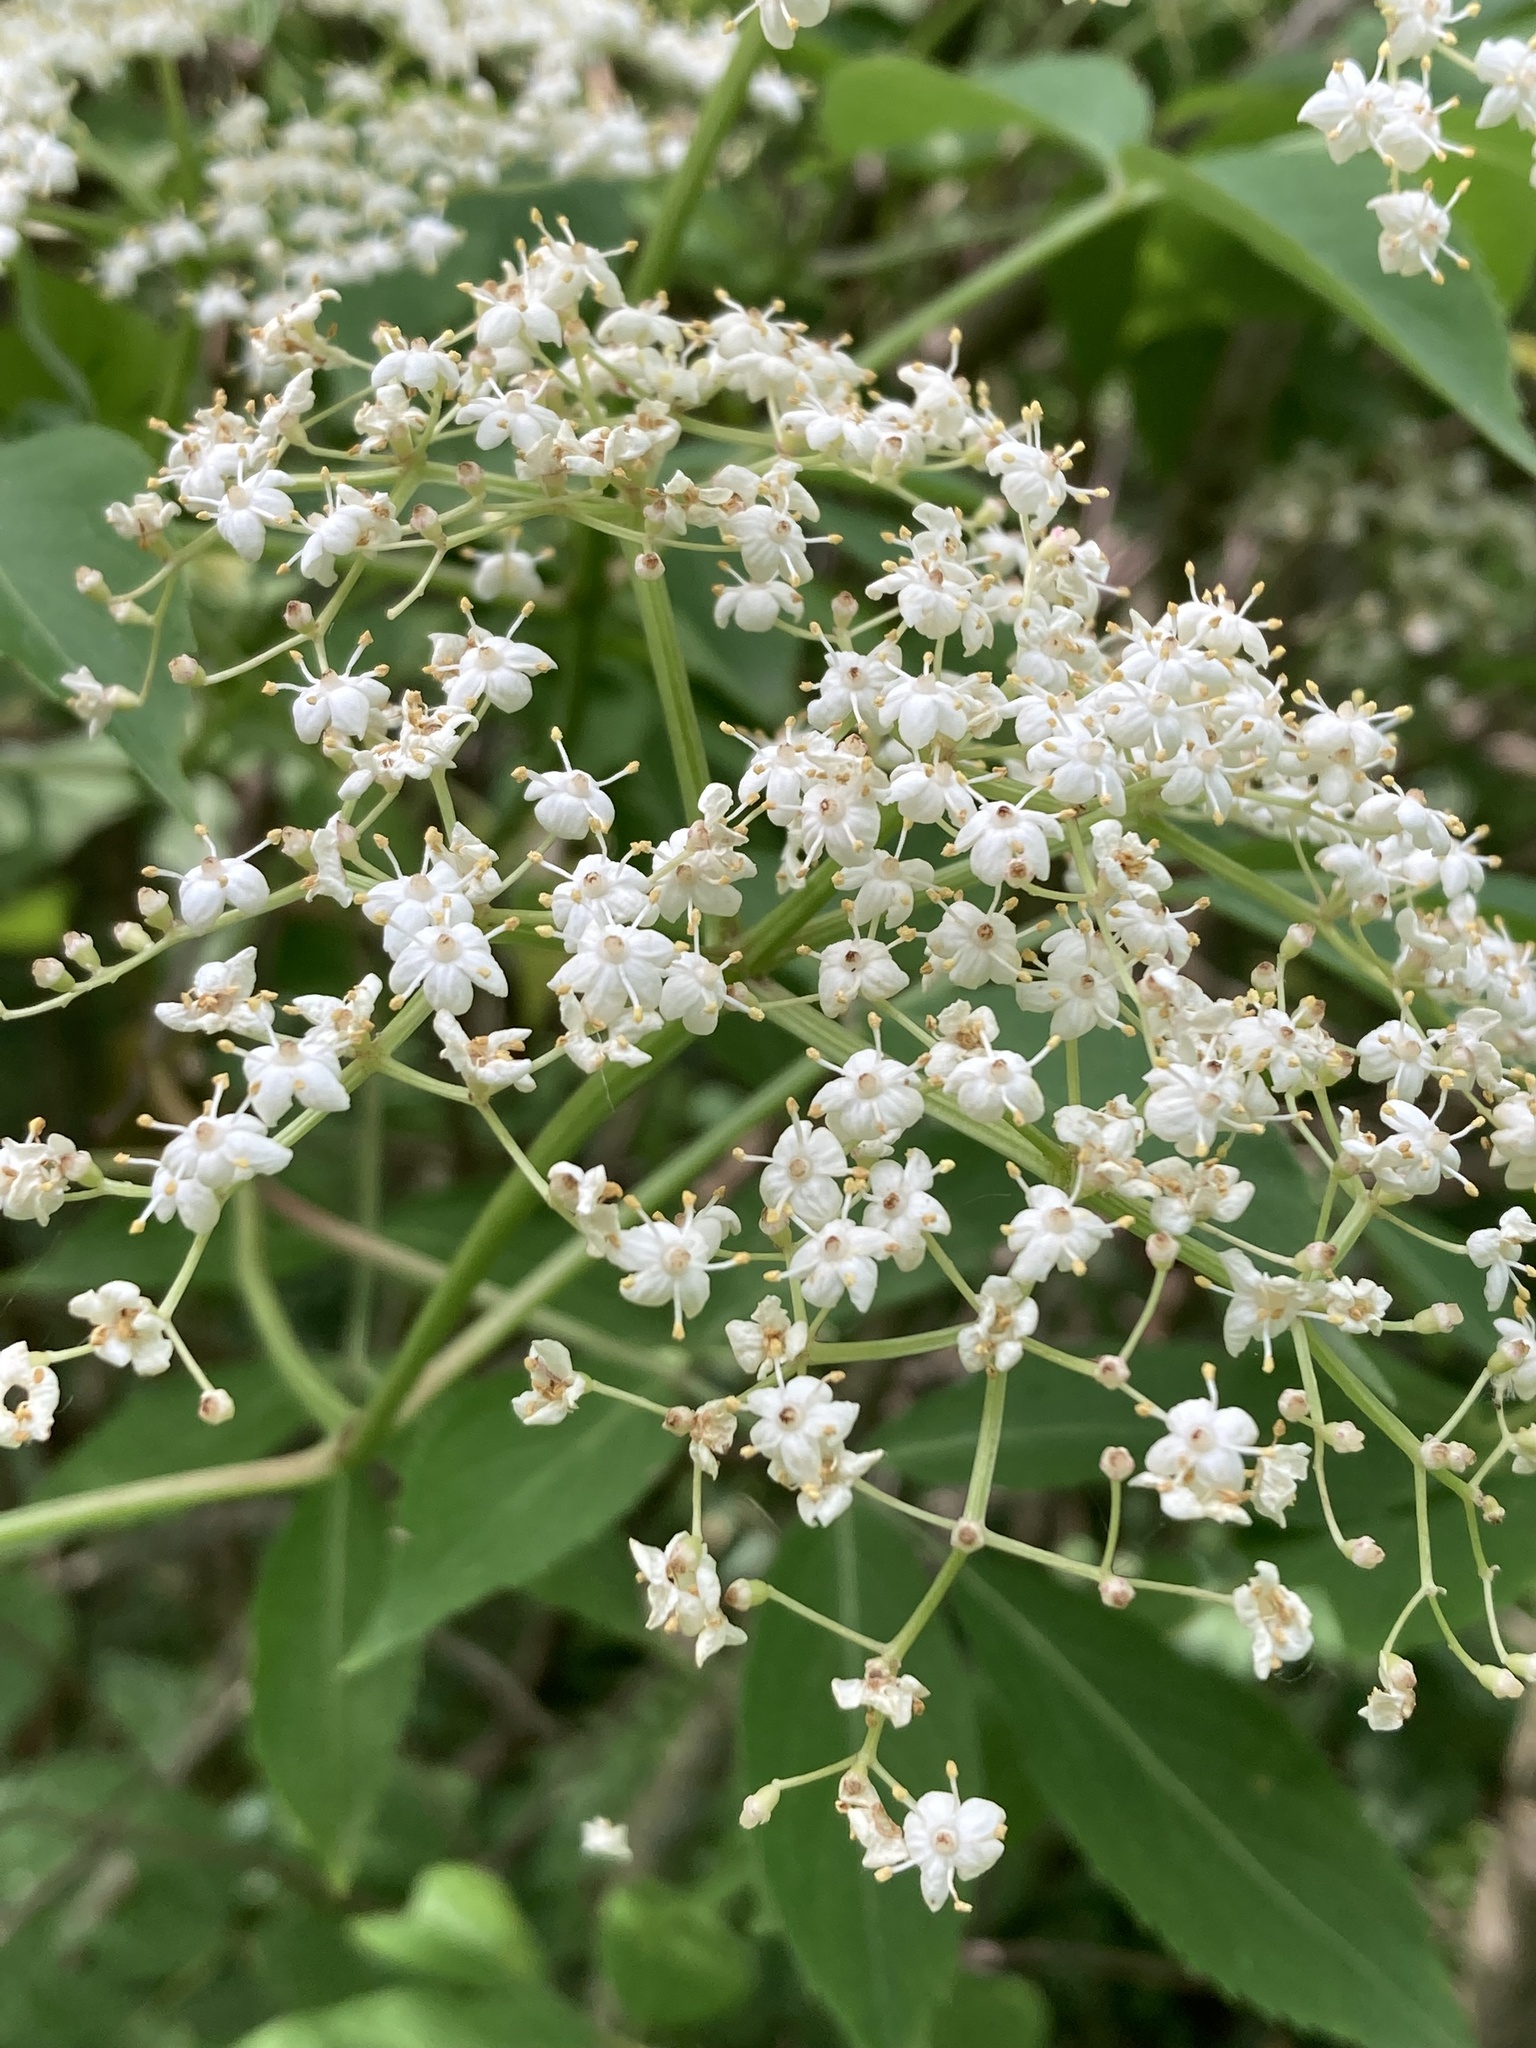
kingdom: Plantae
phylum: Tracheophyta
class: Magnoliopsida
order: Dipsacales
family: Viburnaceae
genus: Sambucus
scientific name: Sambucus canadensis
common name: American elder
